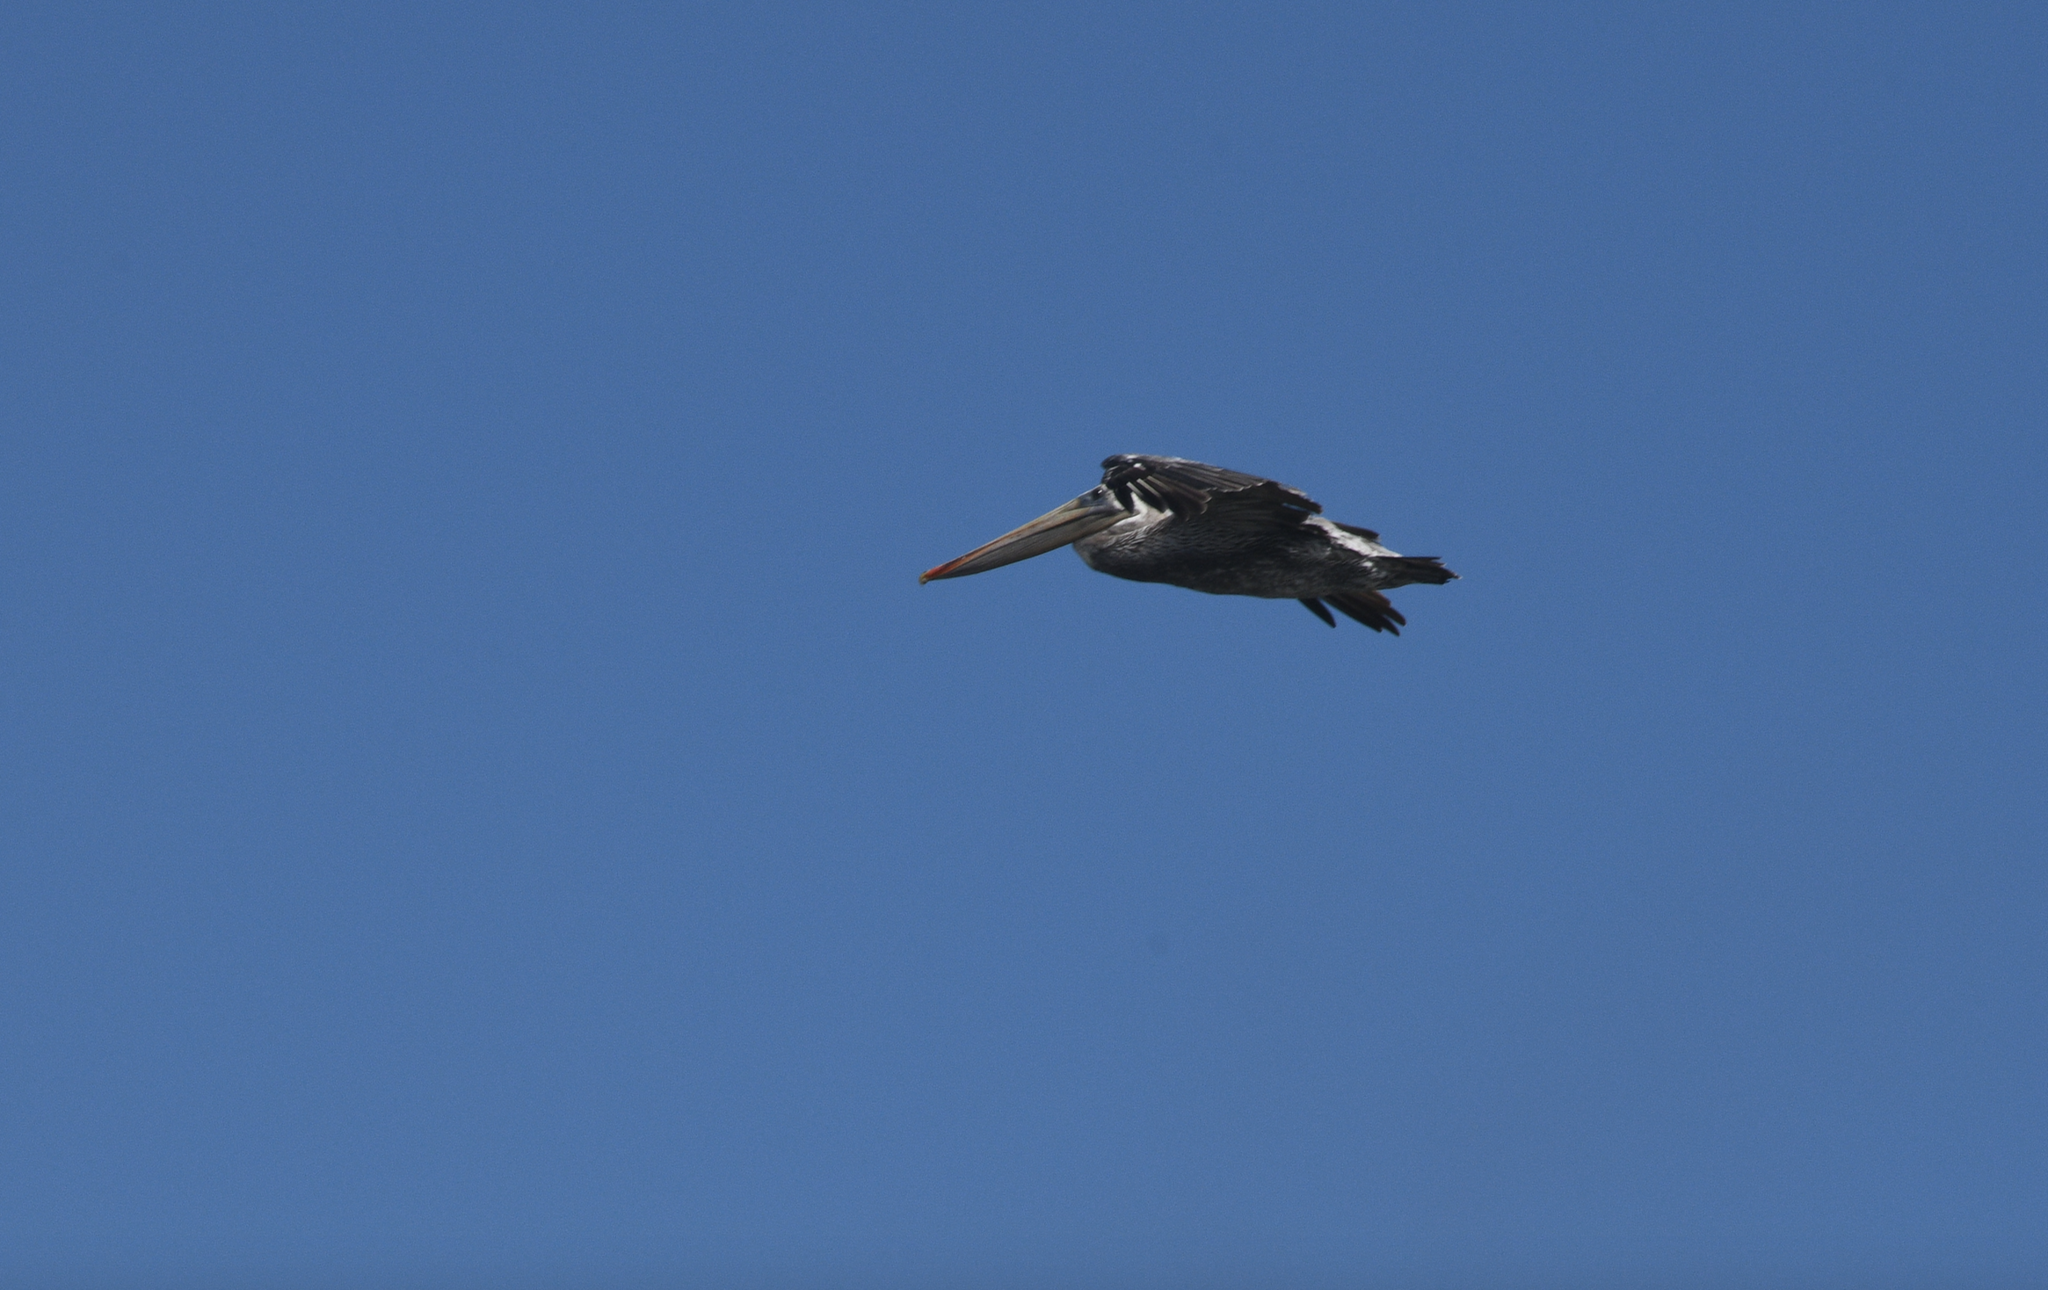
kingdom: Animalia
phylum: Chordata
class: Aves
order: Pelecaniformes
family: Pelecanidae
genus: Pelecanus
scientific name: Pelecanus occidentalis
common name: Brown pelican
